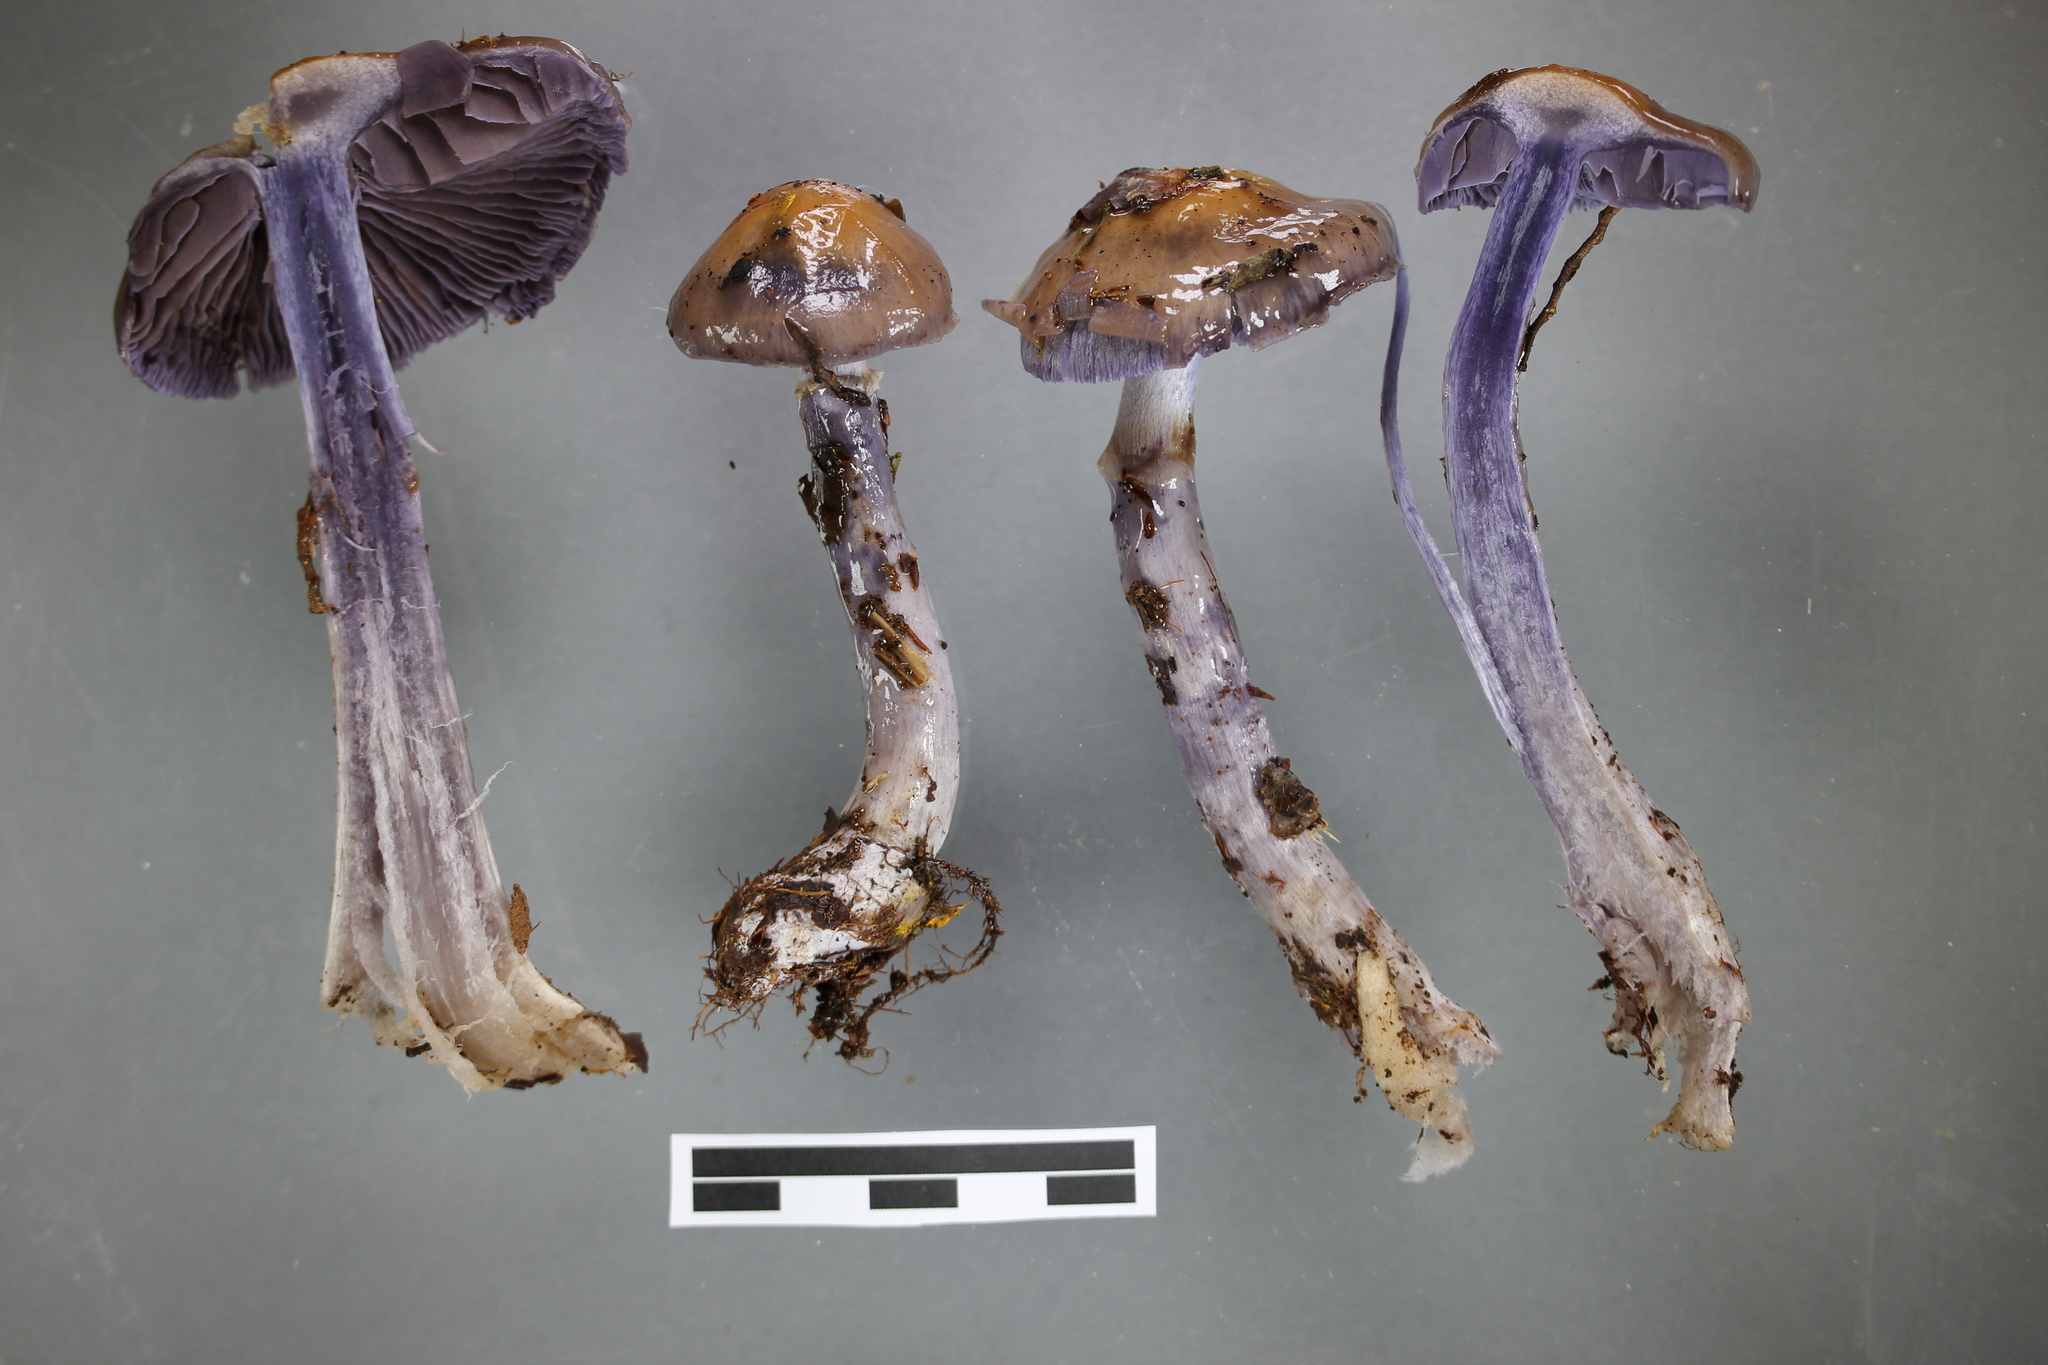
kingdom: Fungi
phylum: Basidiomycota
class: Agaricomycetes
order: Agaricales
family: Cortinariaceae
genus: Cortinarius
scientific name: Cortinarius taylorianus
